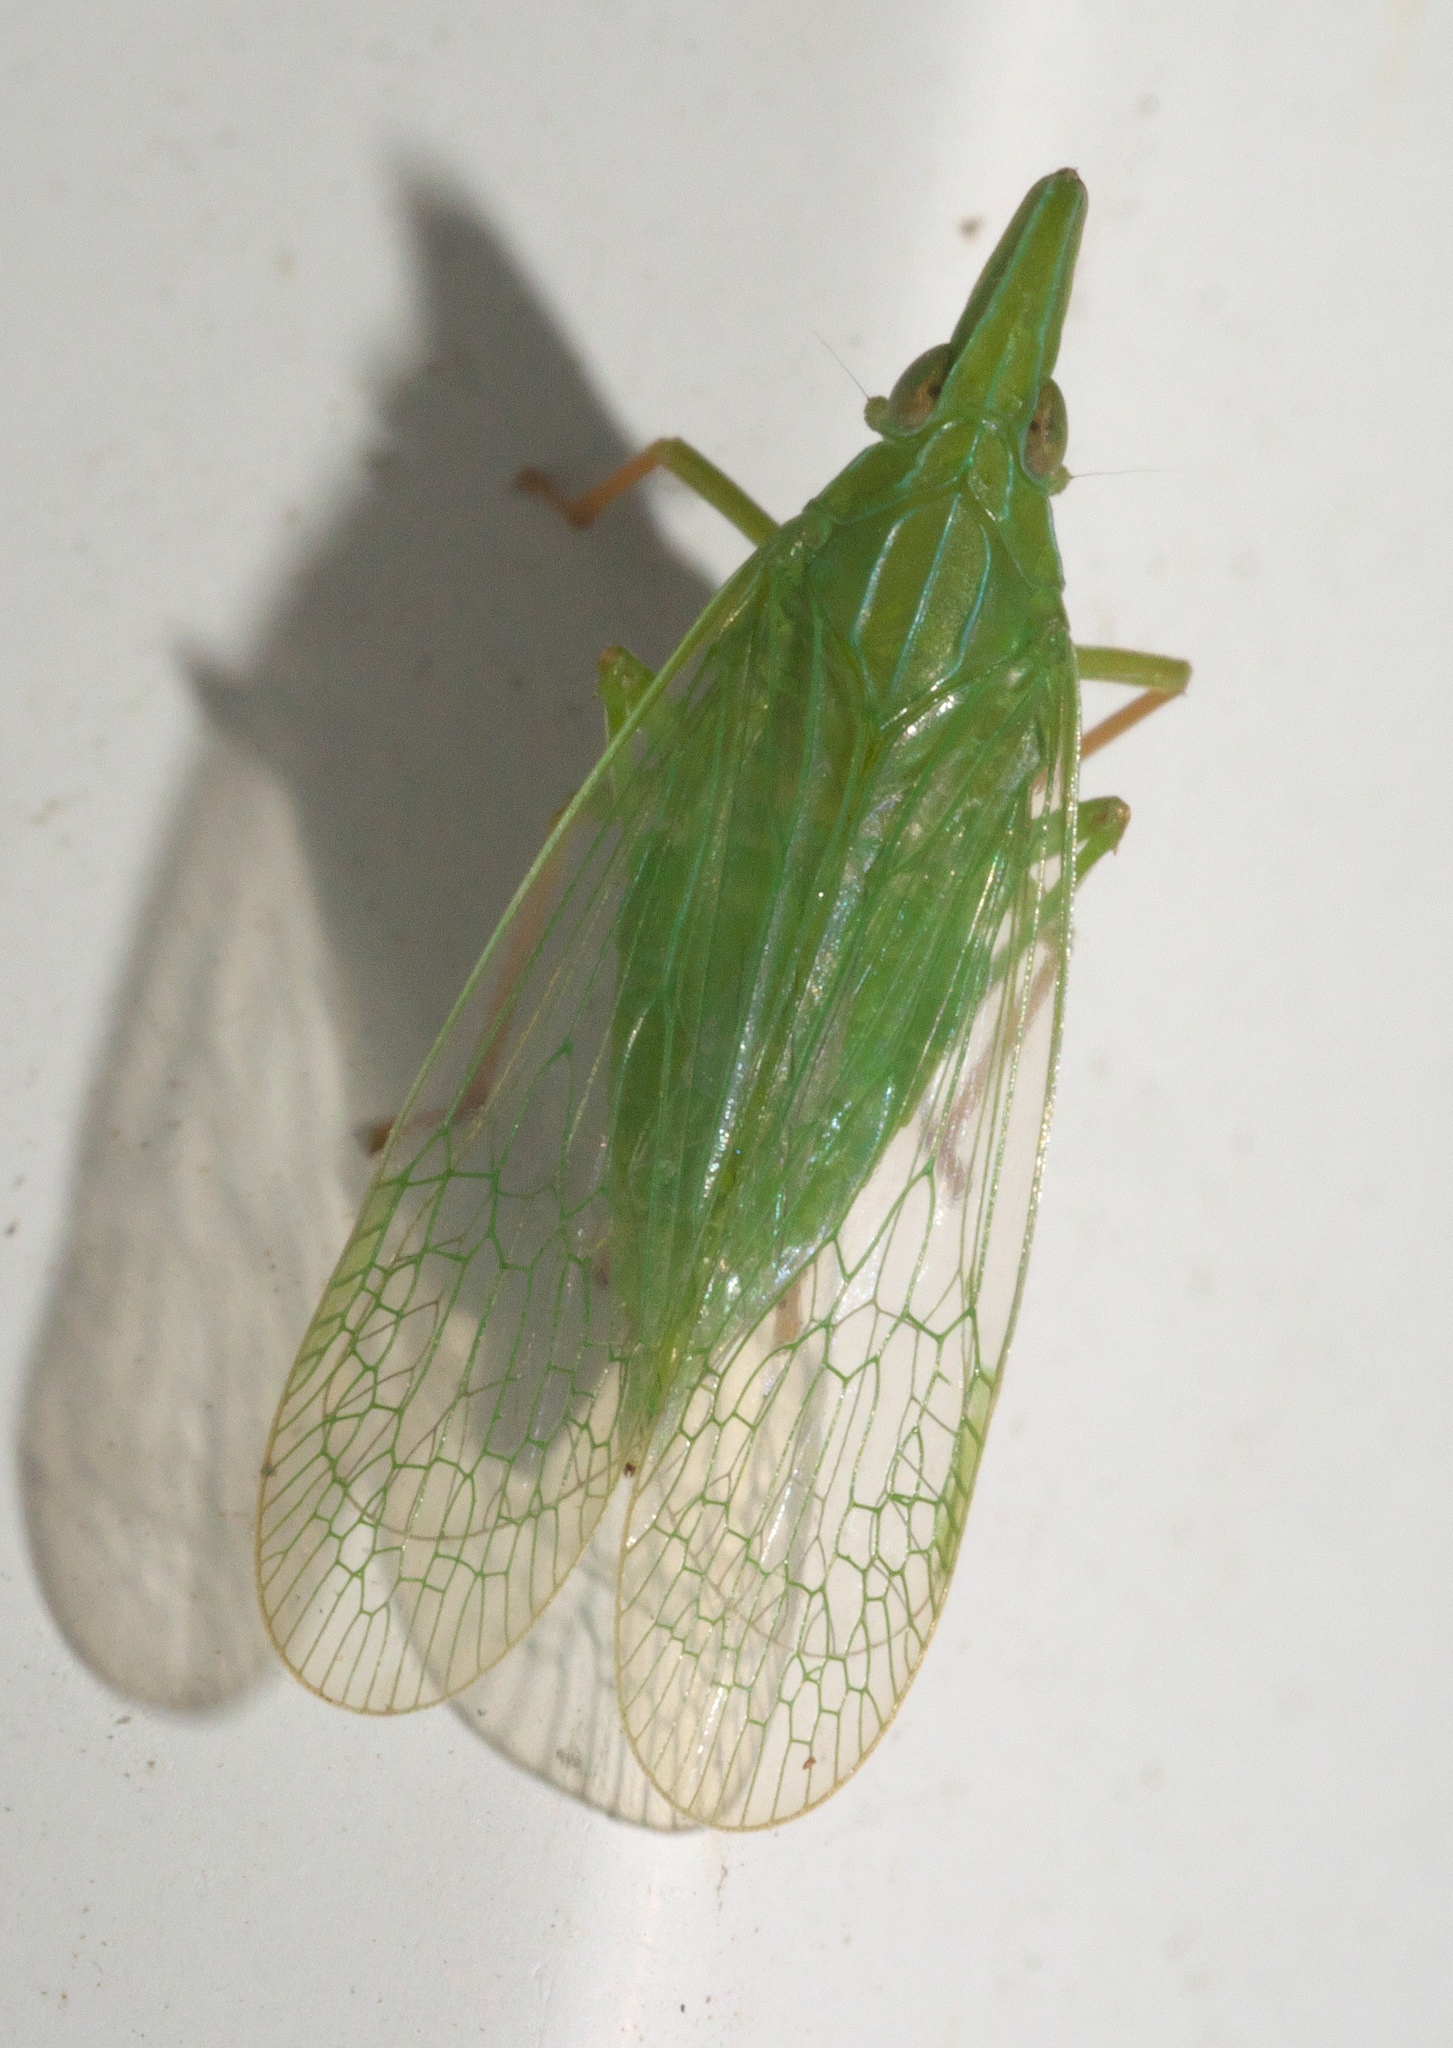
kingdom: Animalia
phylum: Arthropoda
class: Insecta
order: Hemiptera
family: Dictyopharidae
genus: Rhynchomitra
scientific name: Rhynchomitra microrhina
